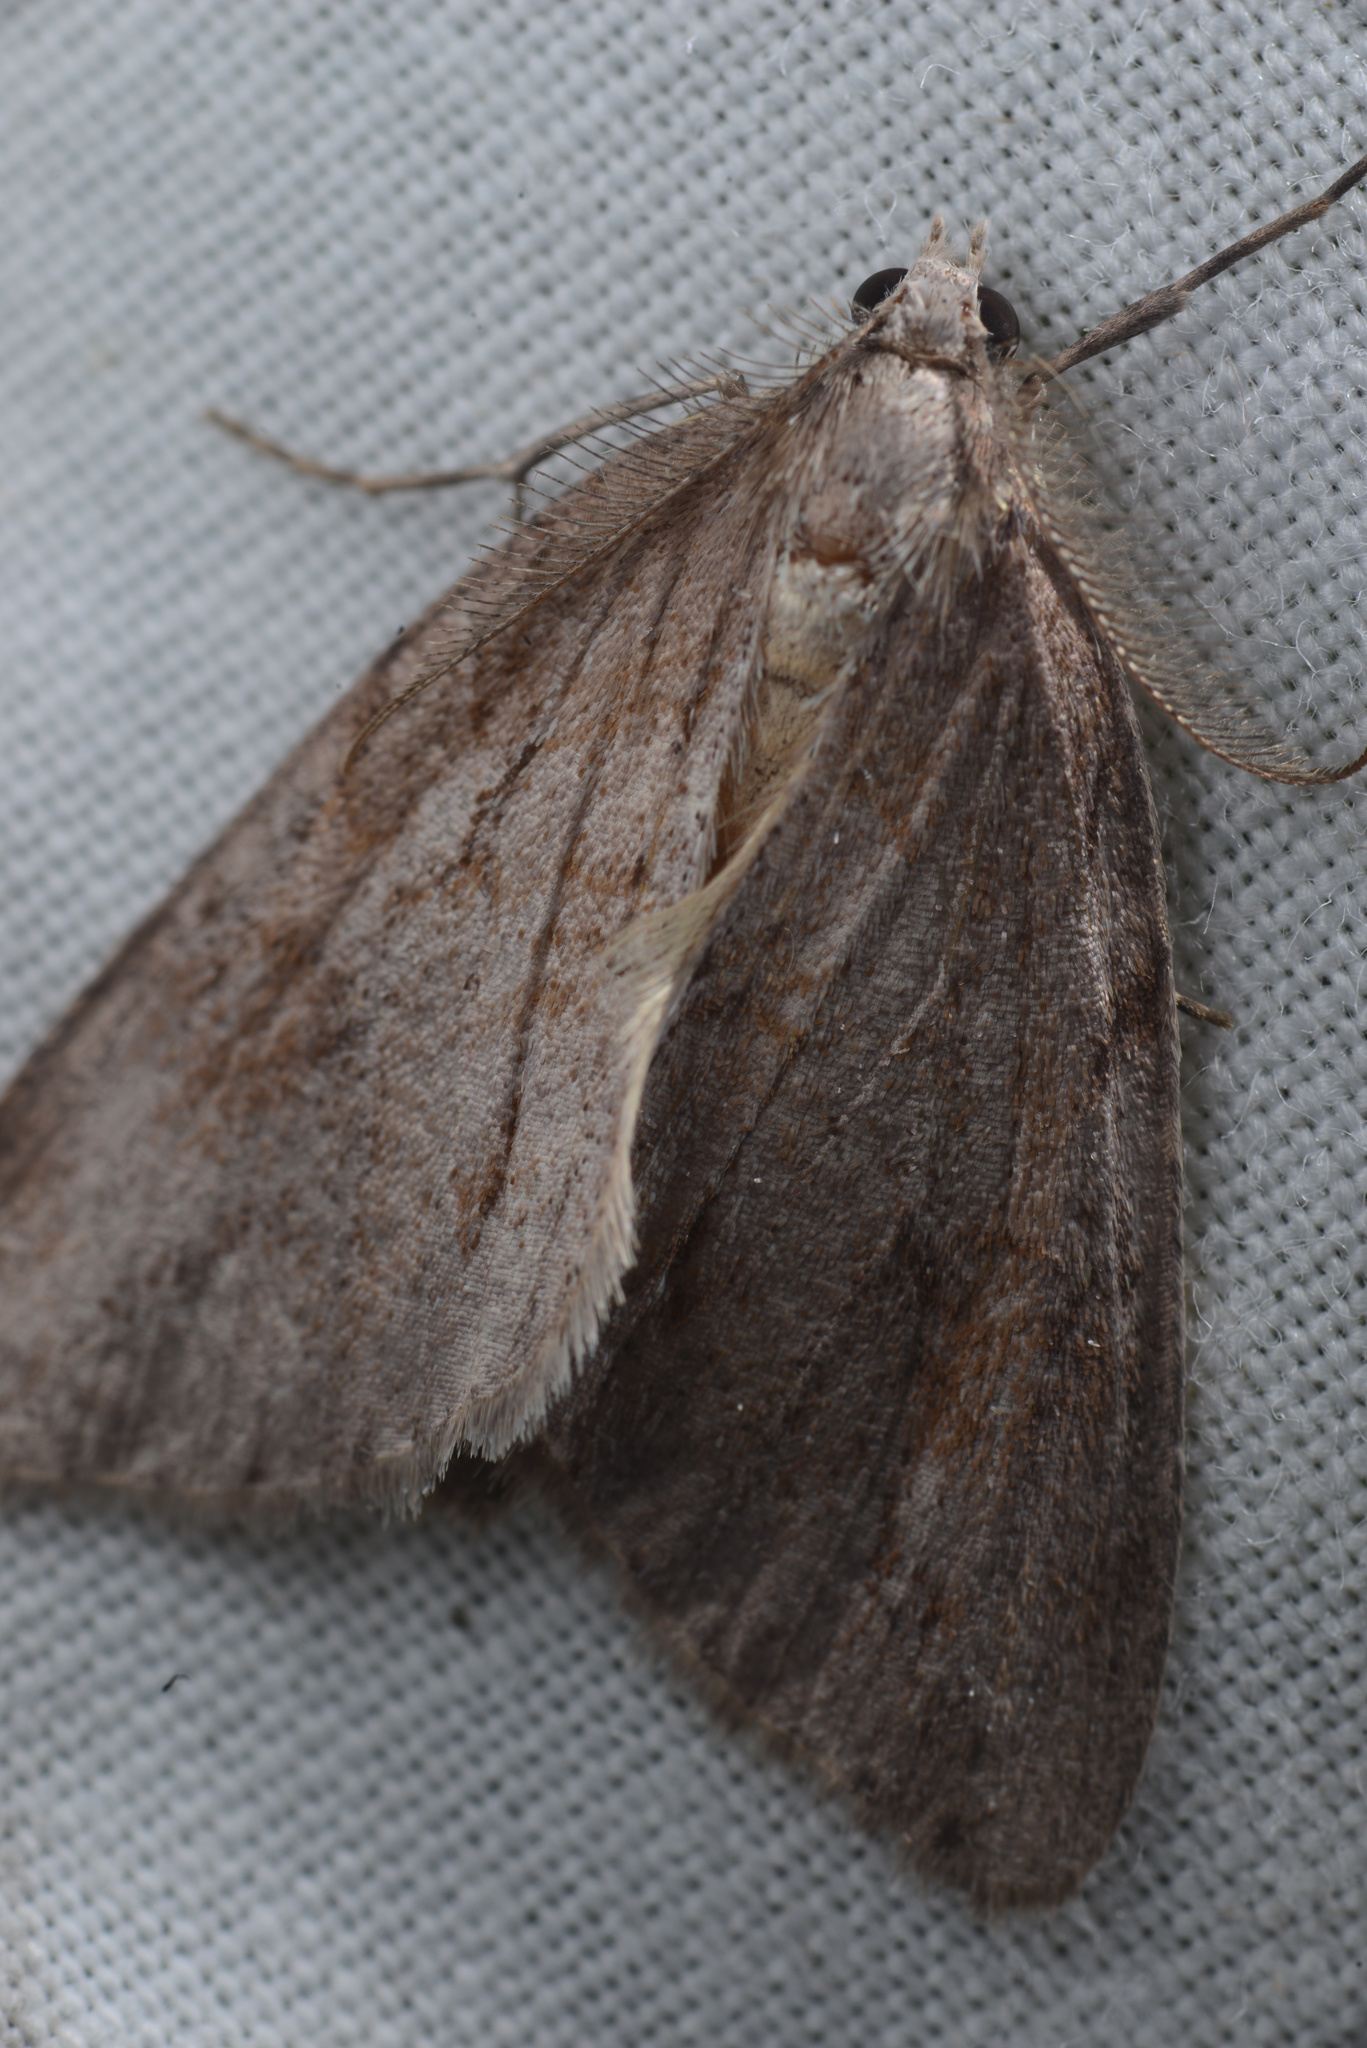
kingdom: Animalia
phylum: Arthropoda
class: Insecta
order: Lepidoptera
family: Geometridae
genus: Pseudocoremia
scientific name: Pseudocoremia lupinata
